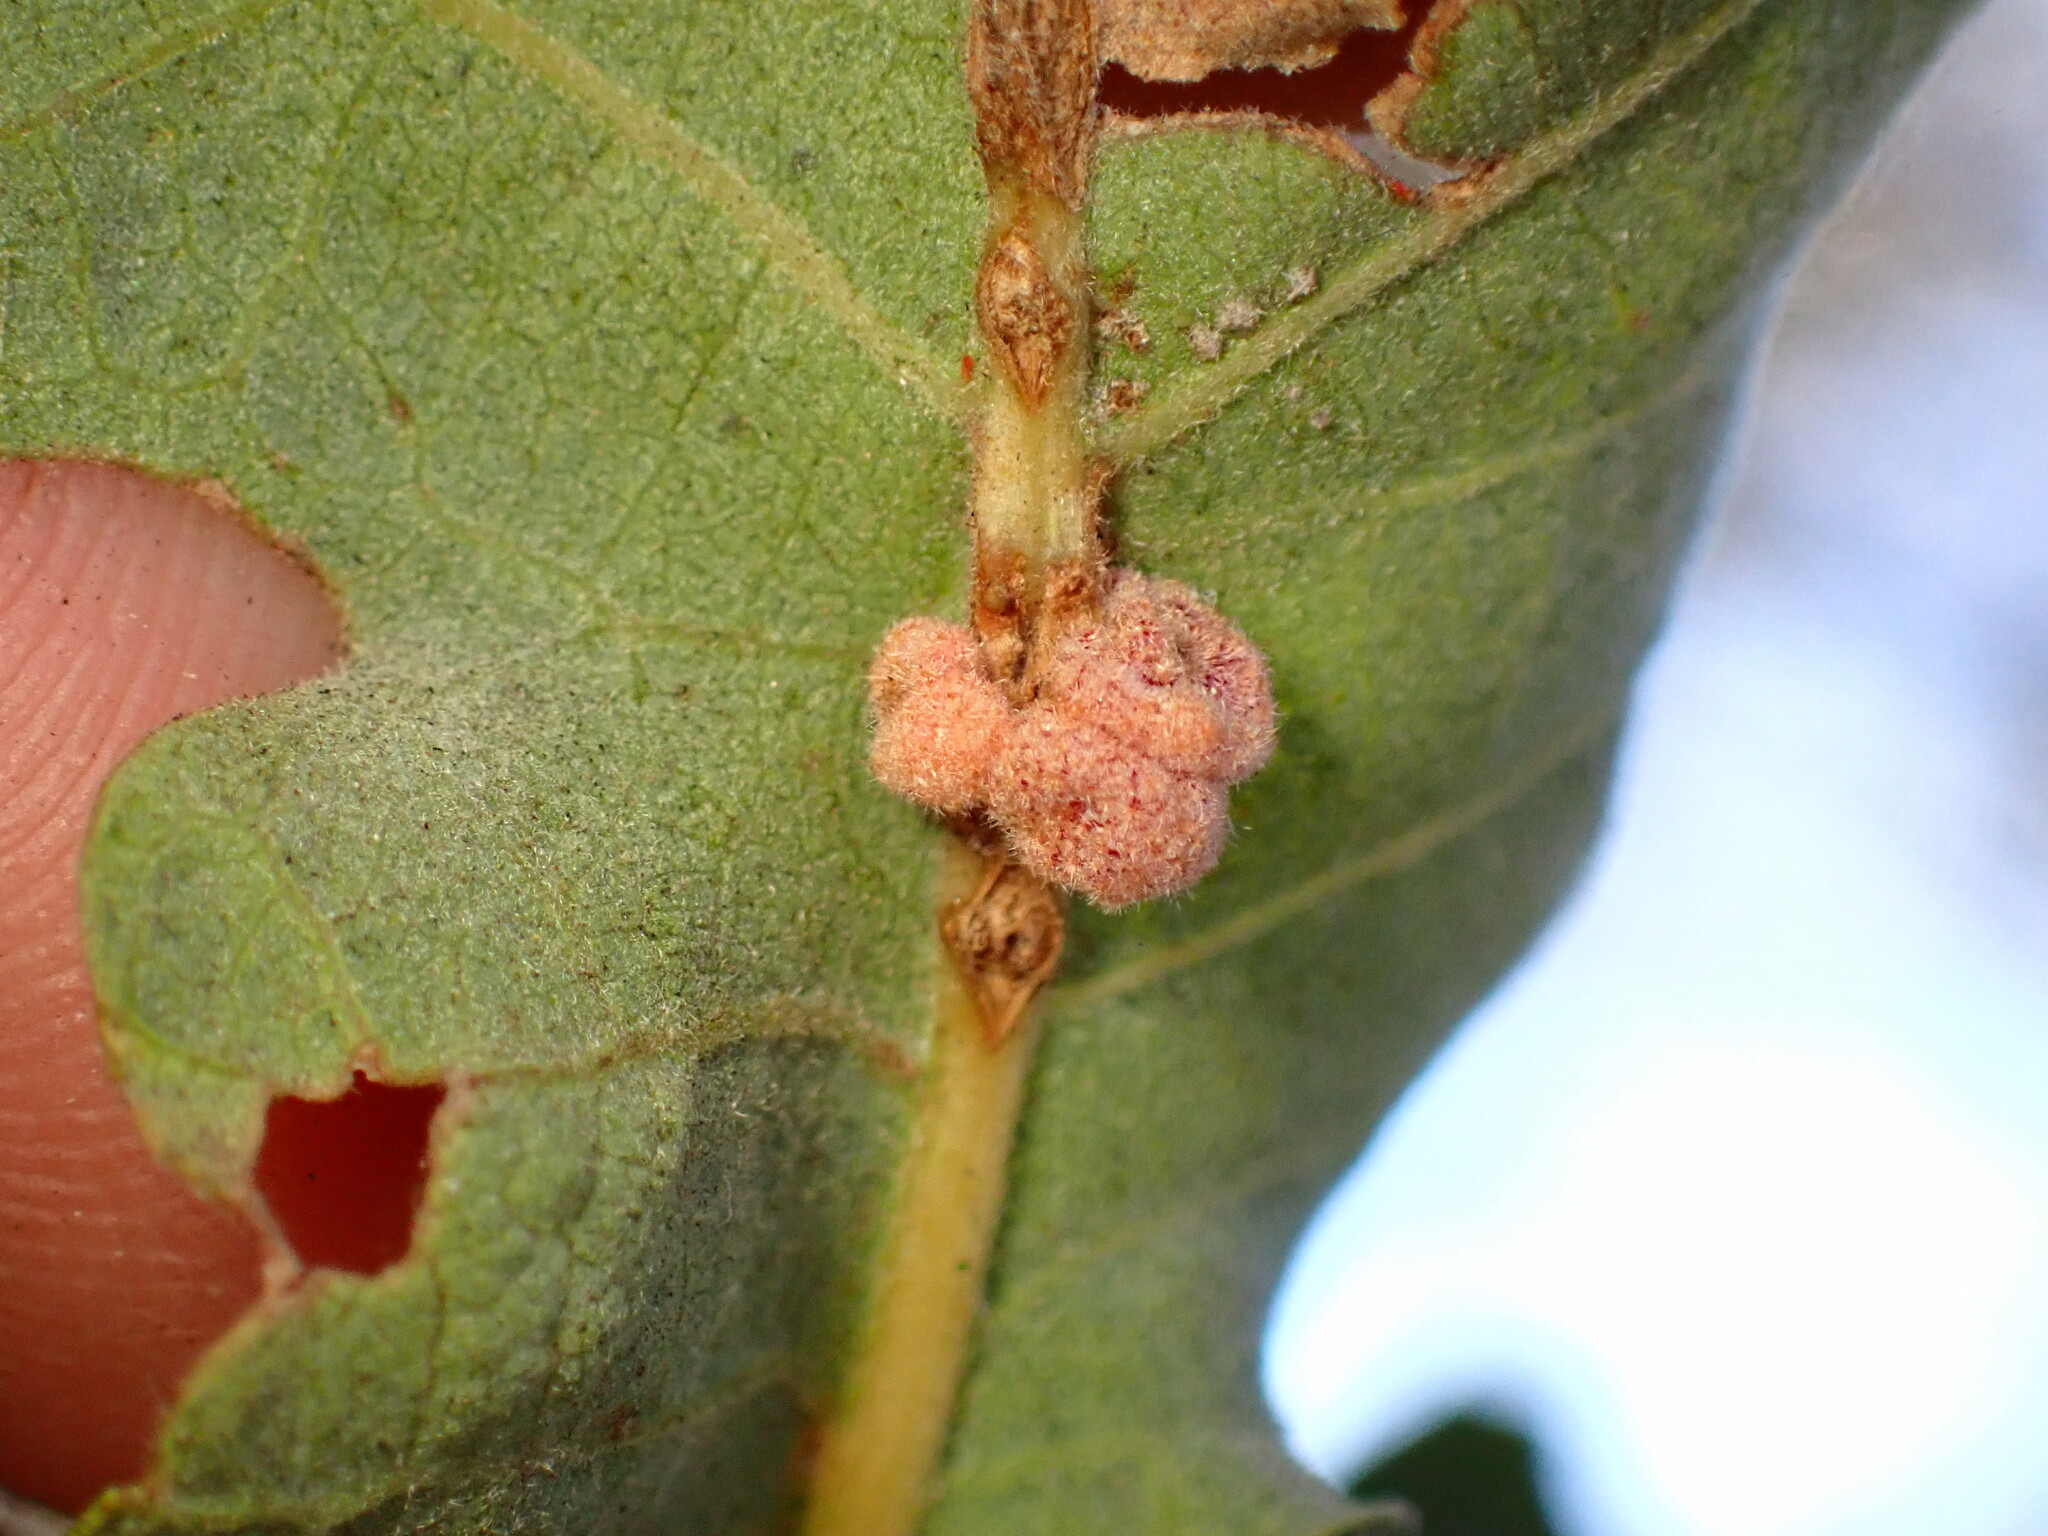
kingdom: Animalia
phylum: Arthropoda
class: Insecta
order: Hymenoptera
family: Cynipidae
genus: Andricus
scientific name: Andricus
